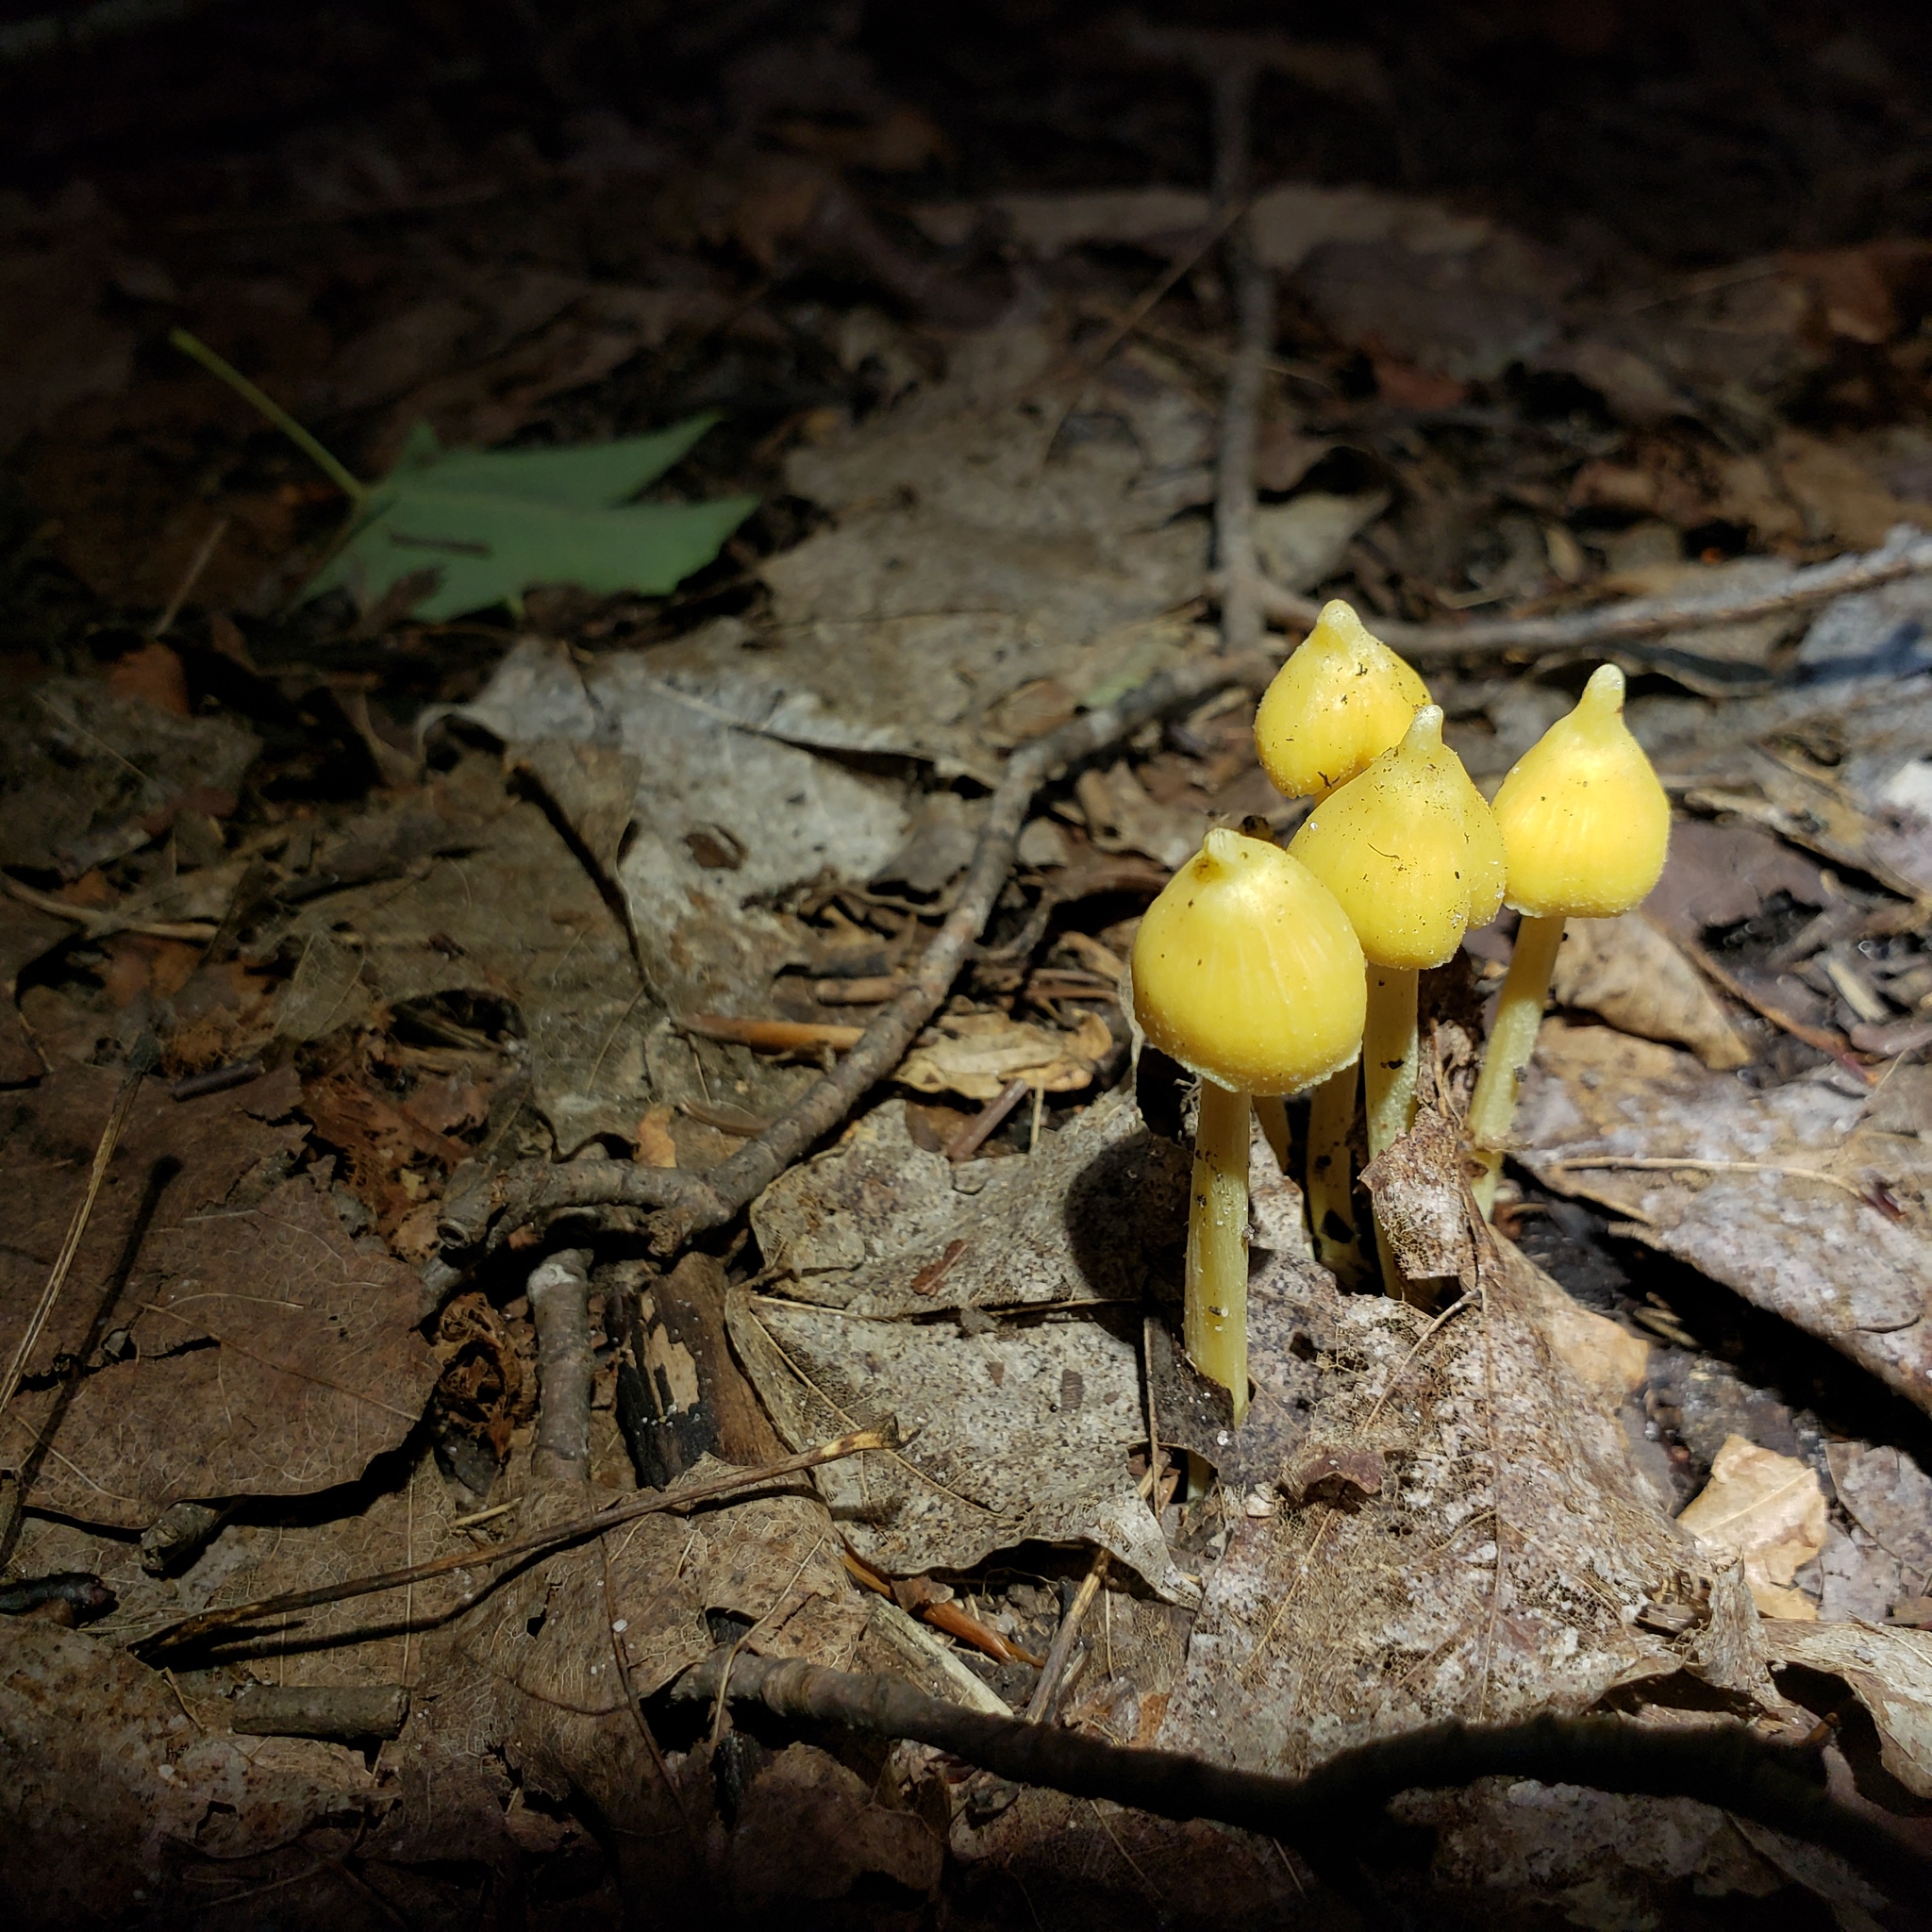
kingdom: Fungi
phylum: Basidiomycota
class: Agaricomycetes
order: Agaricales
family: Entolomataceae
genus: Entoloma
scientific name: Entoloma murrayi
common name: Yellow unicorn entoloma
